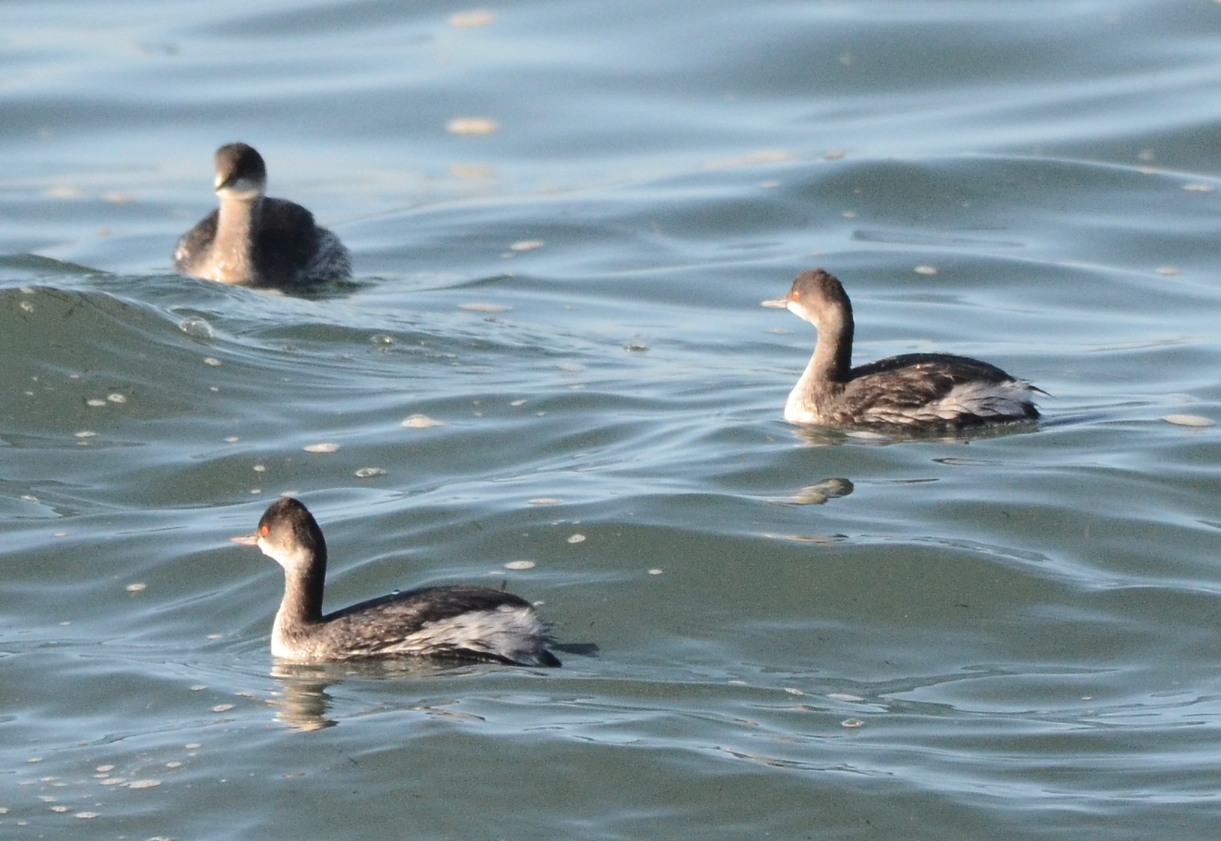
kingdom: Animalia
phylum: Chordata
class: Aves
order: Podicipediformes
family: Podicipedidae
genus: Podiceps
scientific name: Podiceps nigricollis
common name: Black-necked grebe
